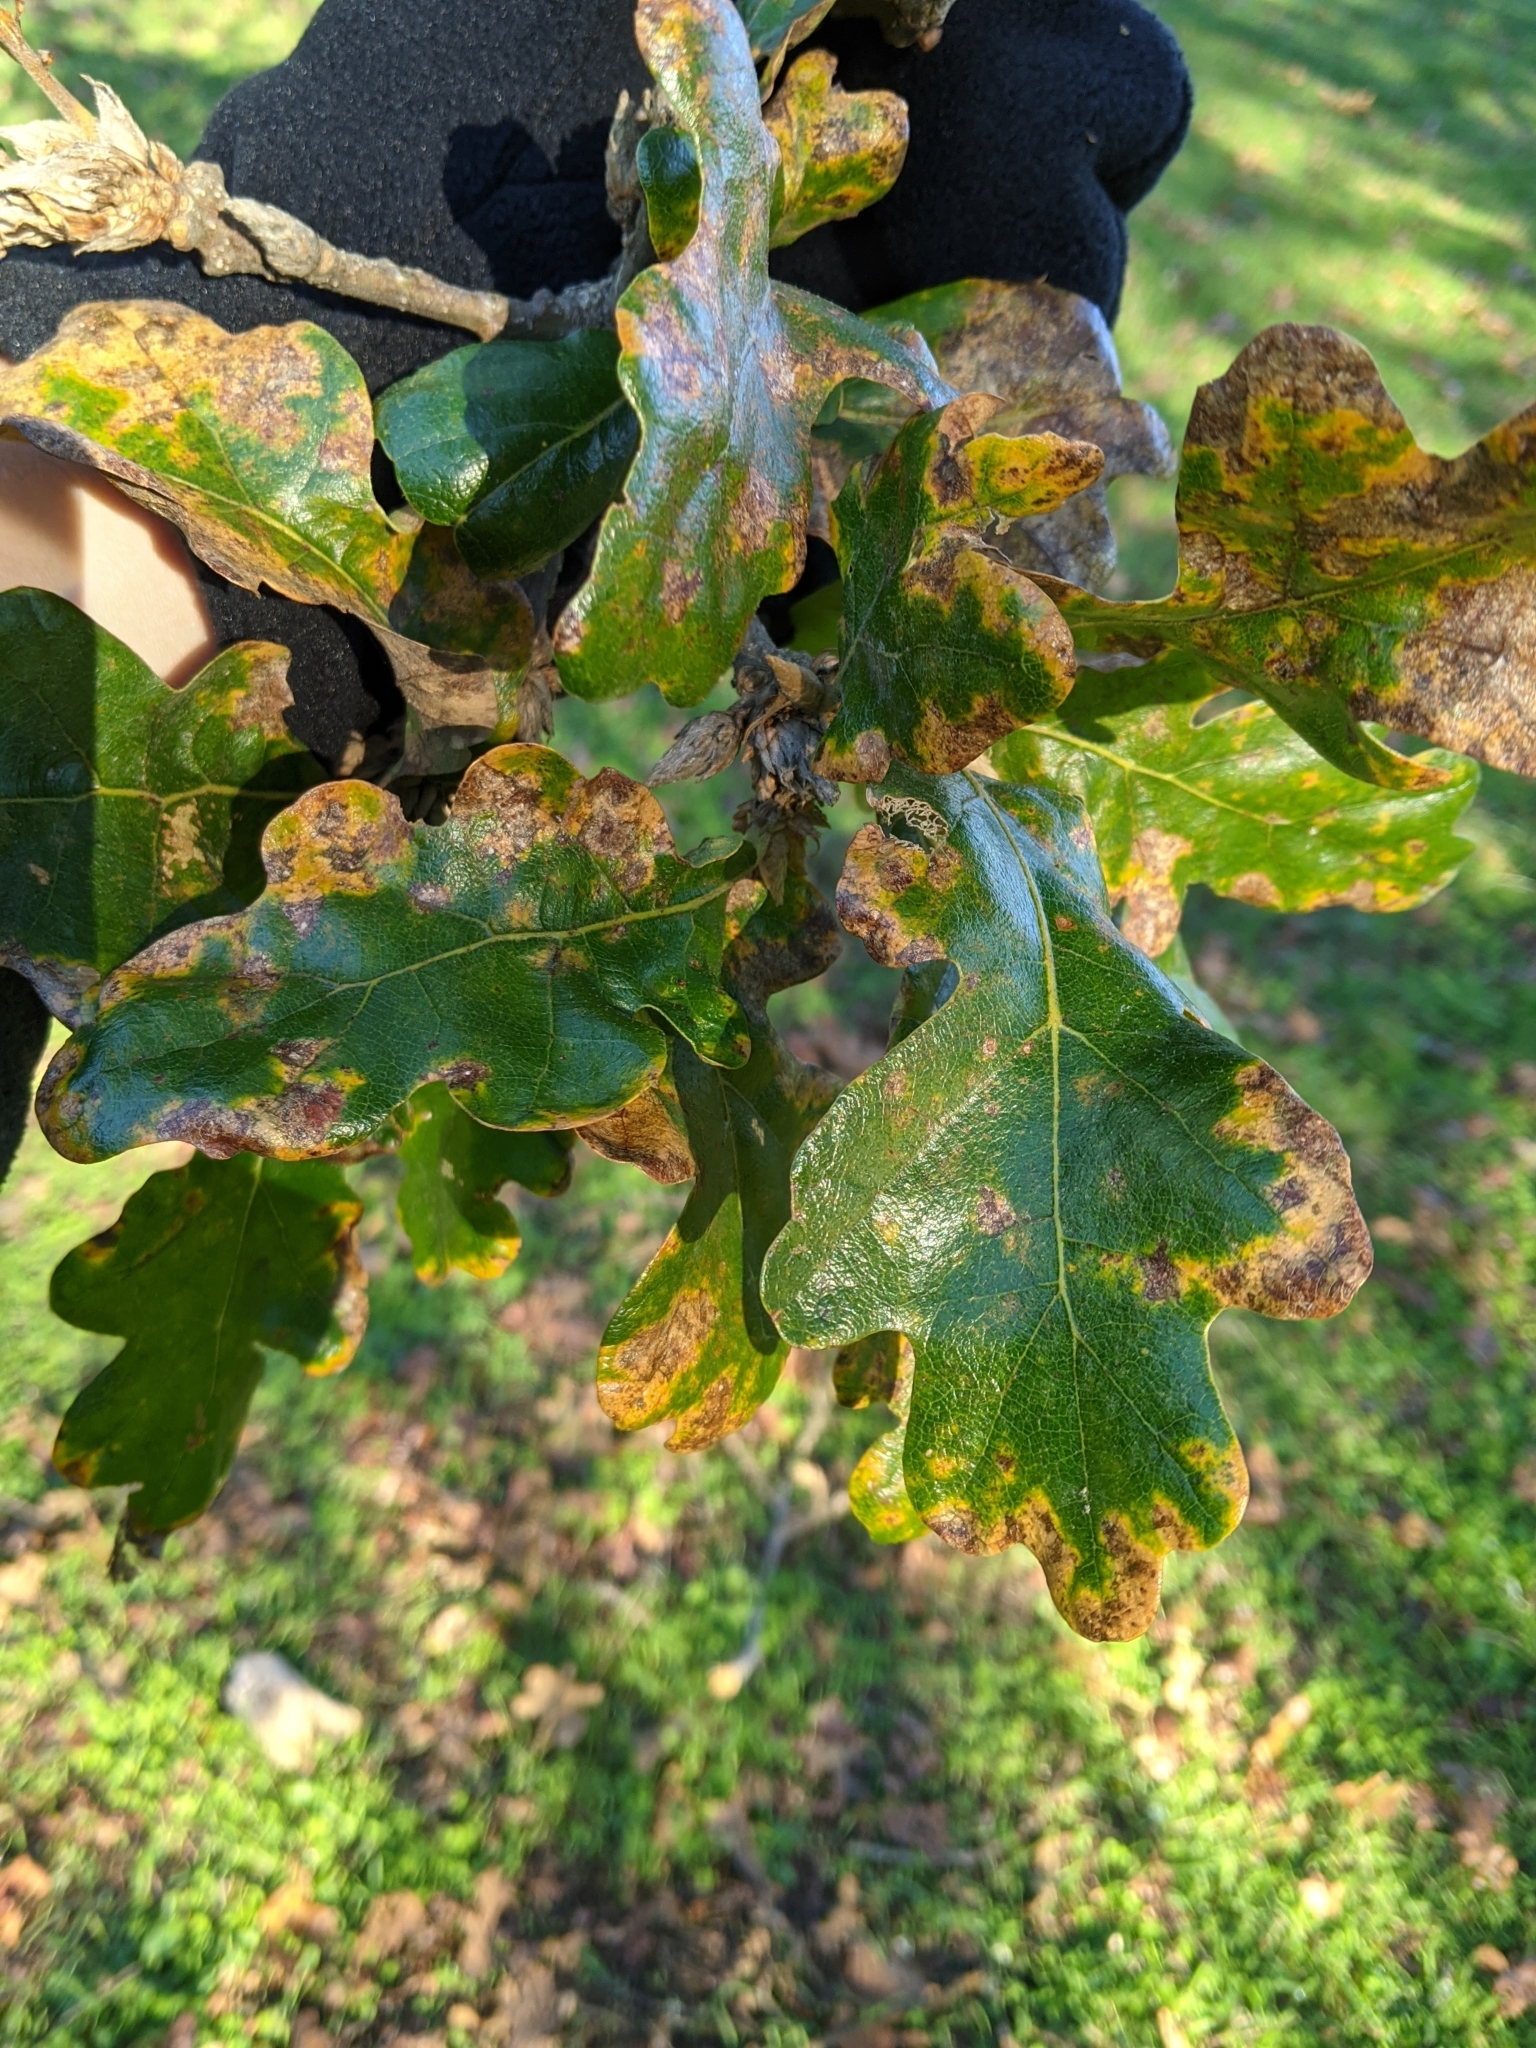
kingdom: Plantae
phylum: Tracheophyta
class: Magnoliopsida
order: Fagales
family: Fagaceae
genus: Quercus
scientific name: Quercus garryana
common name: Garry oak
